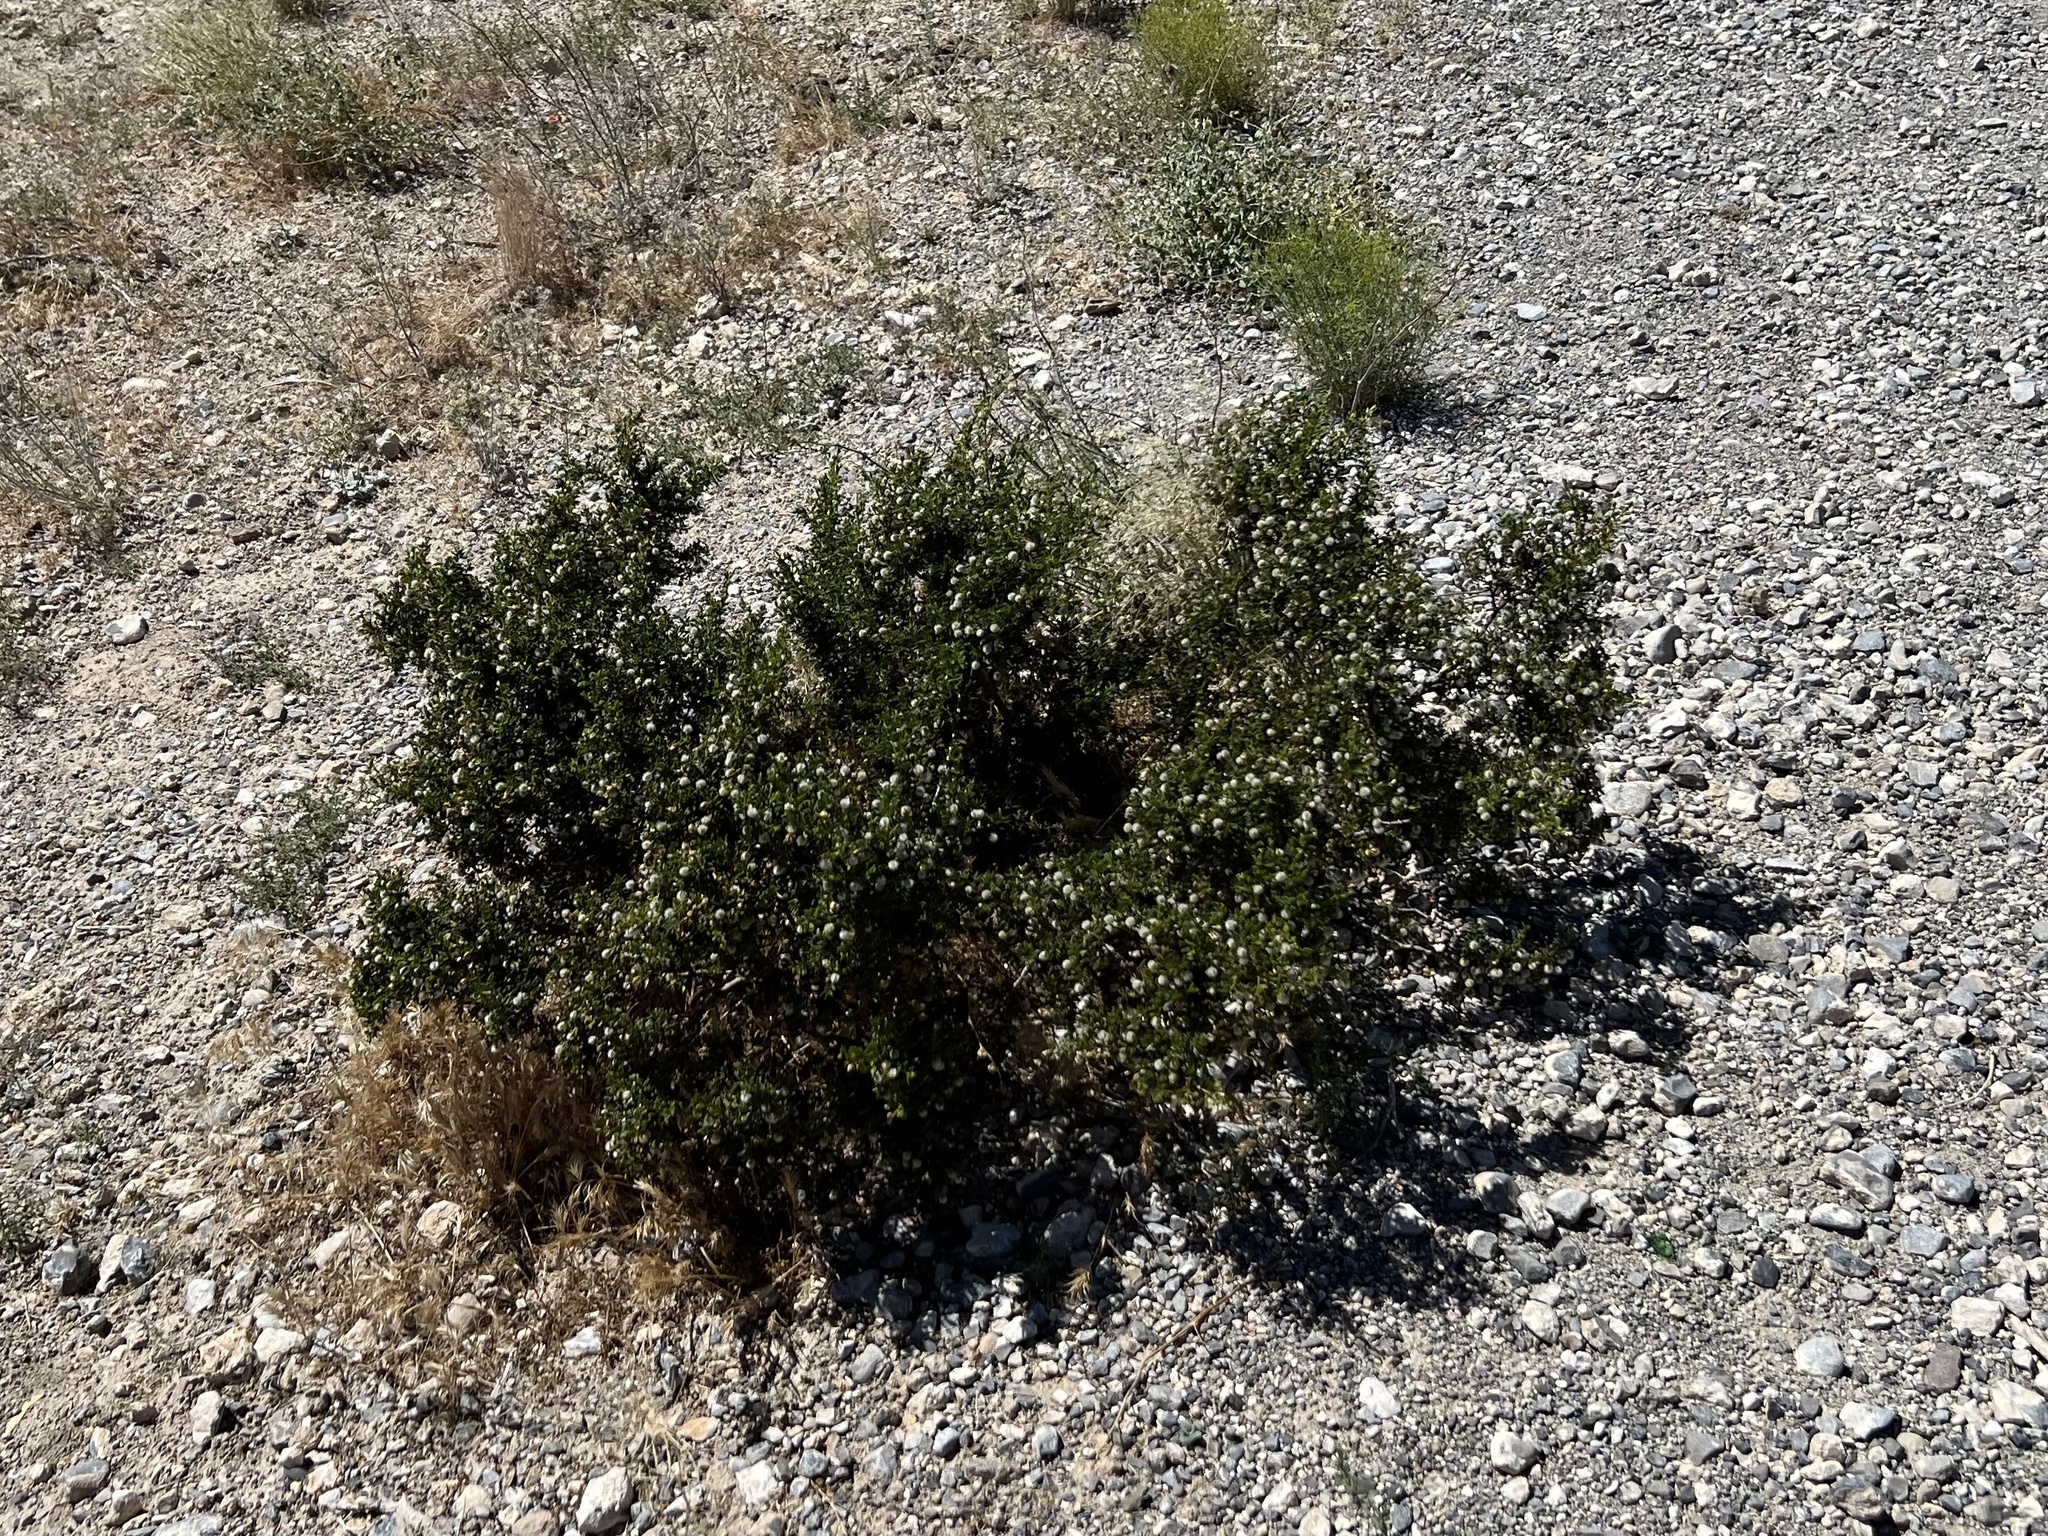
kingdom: Plantae
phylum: Tracheophyta
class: Magnoliopsida
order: Zygophyllales
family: Zygophyllaceae
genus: Larrea
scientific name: Larrea tridentata
